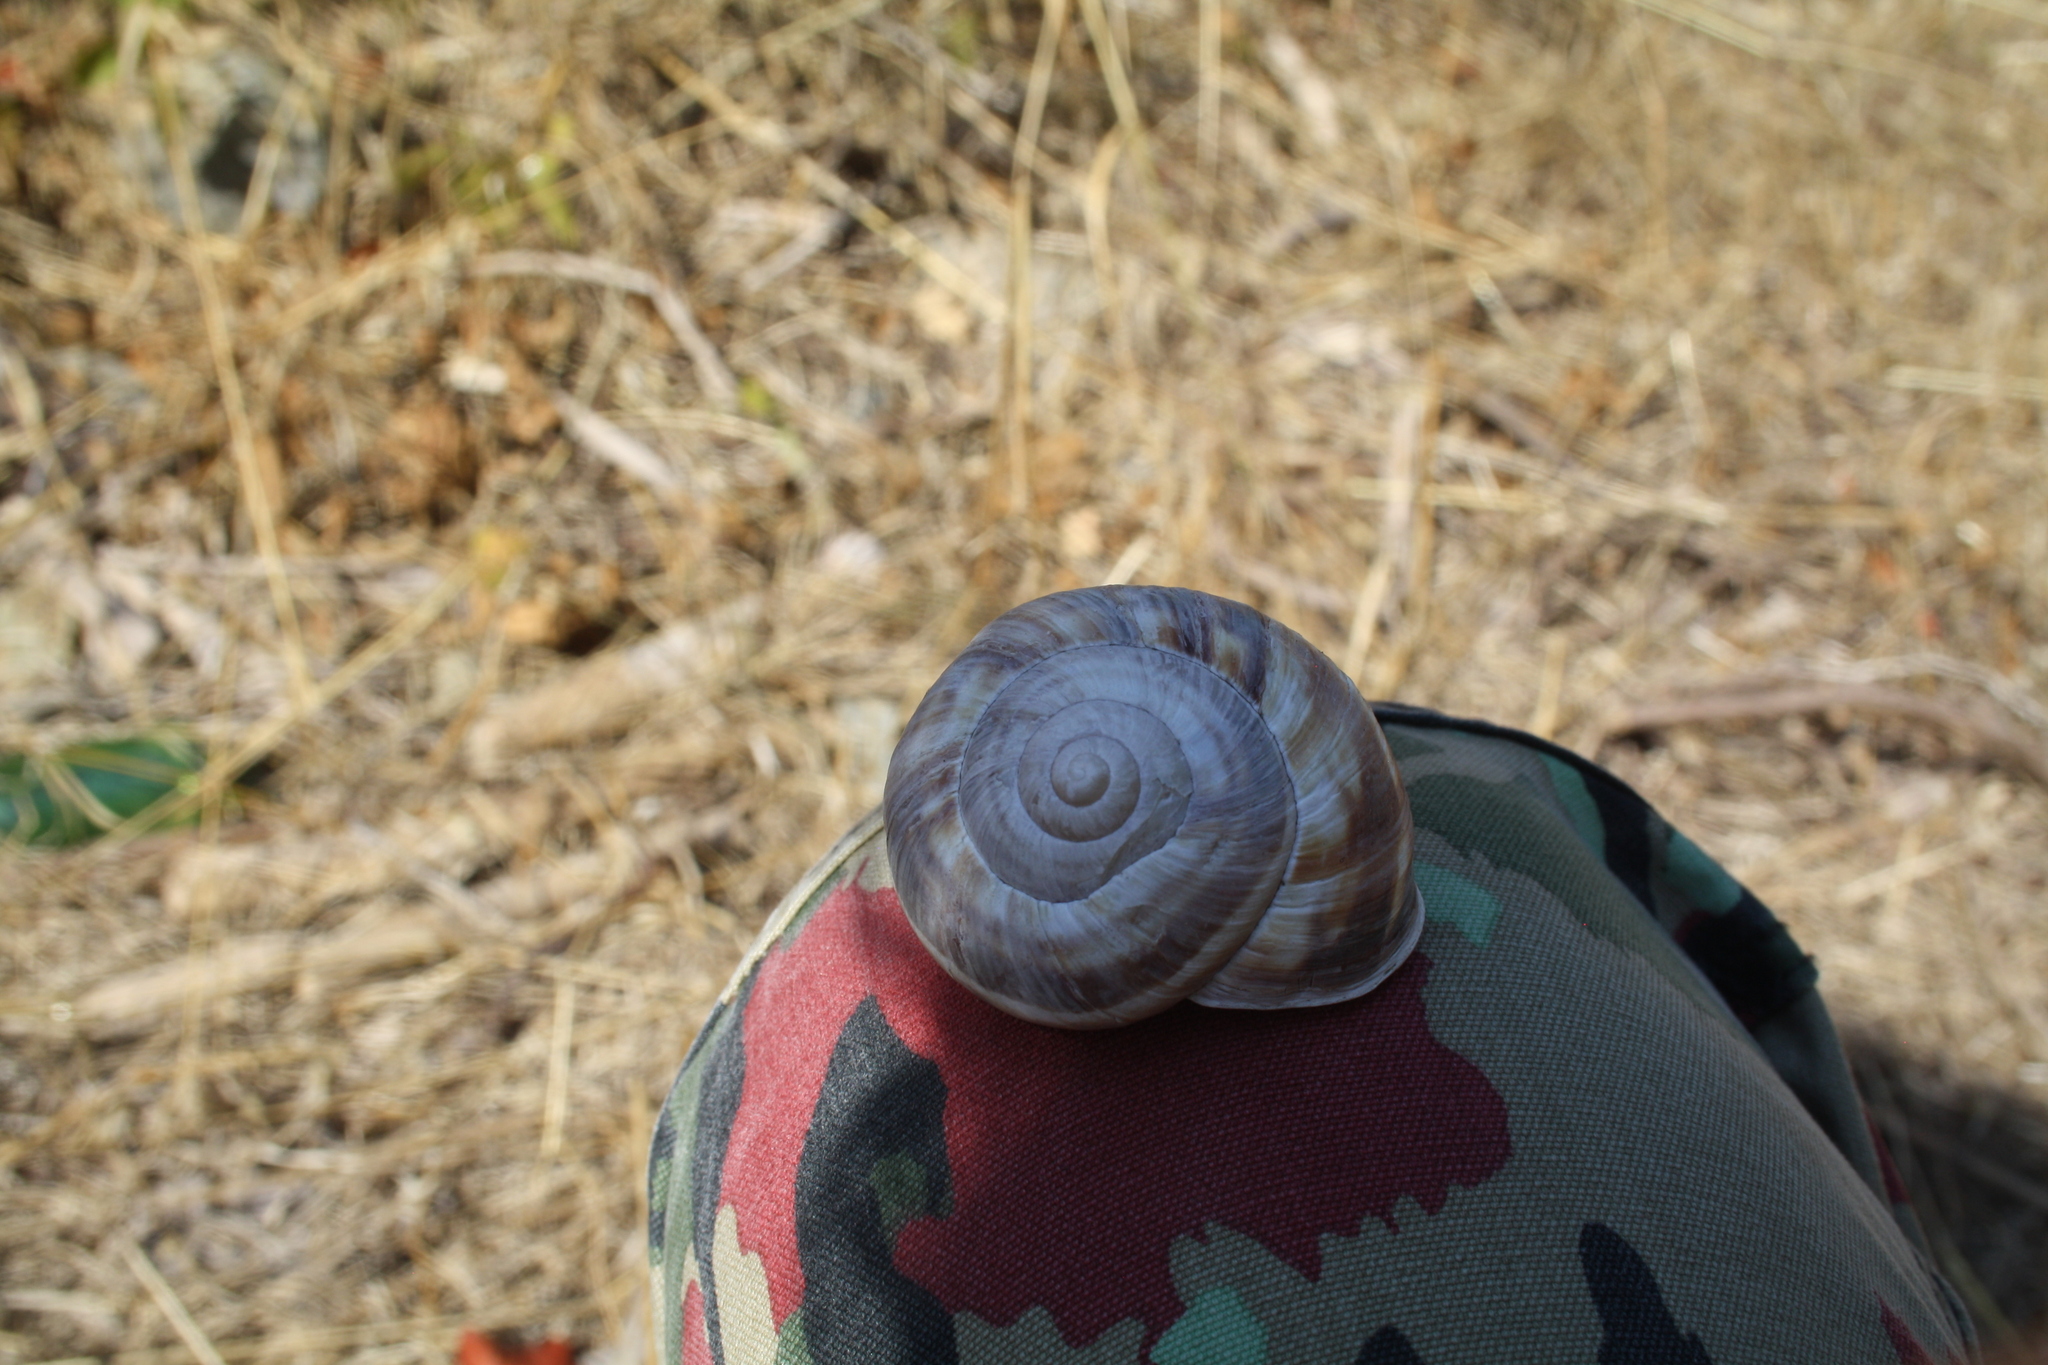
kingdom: Animalia
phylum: Mollusca
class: Gastropoda
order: Stylommatophora
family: Helicidae
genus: Helix
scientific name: Helix lucorum
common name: Turkish snail
